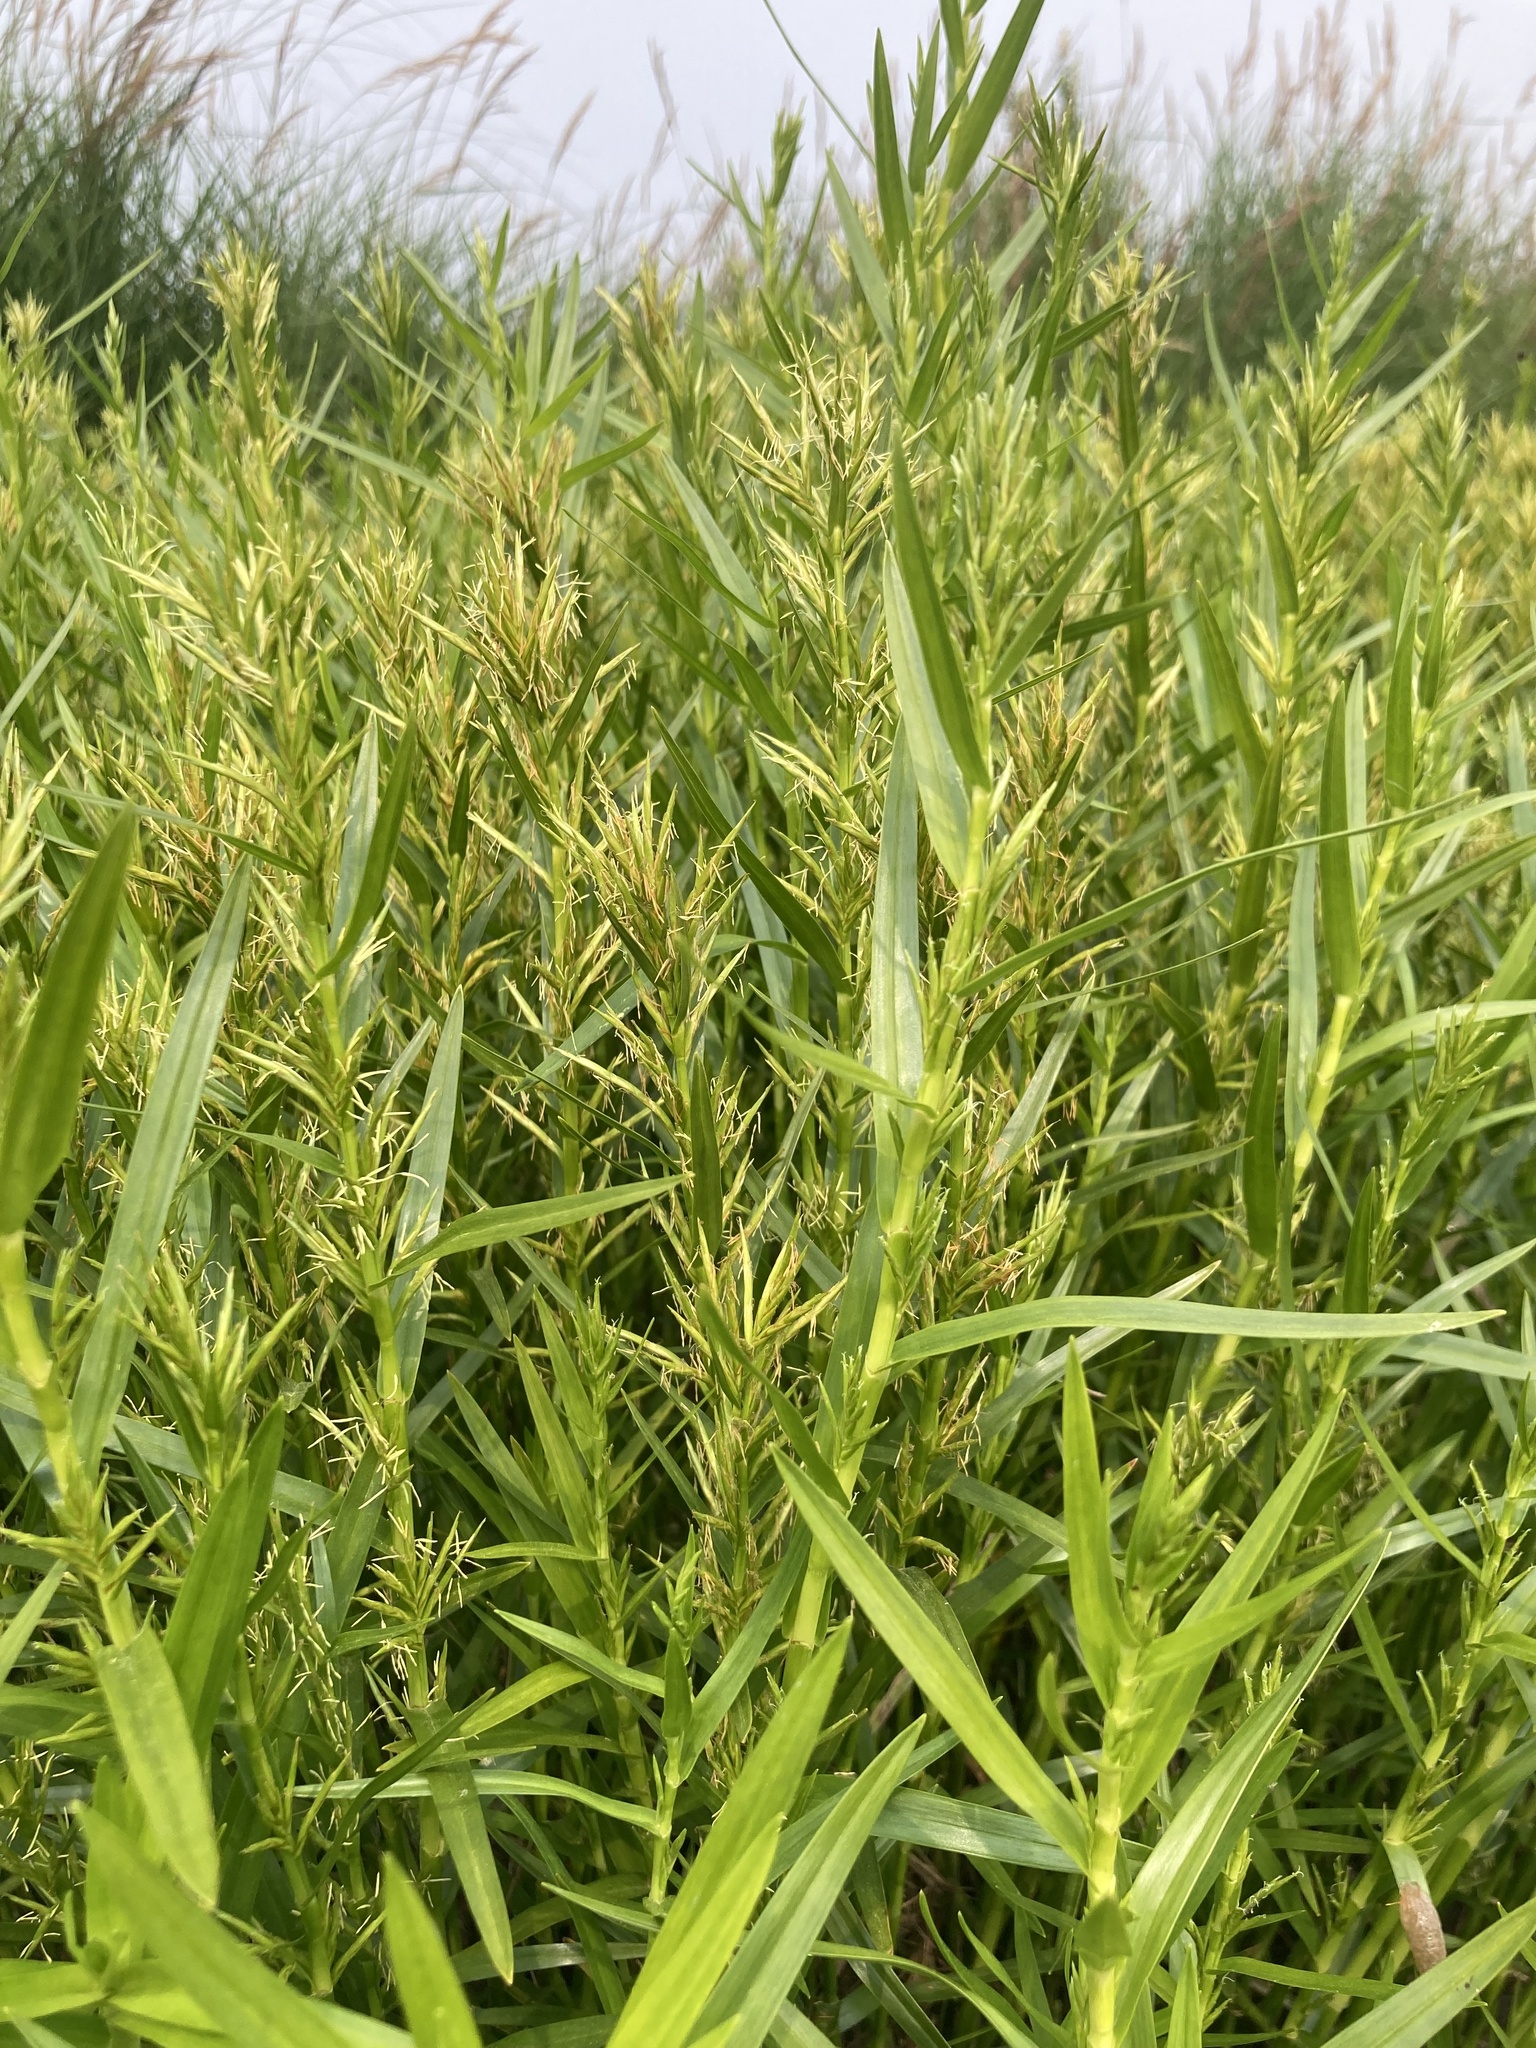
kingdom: Plantae
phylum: Tracheophyta
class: Liliopsida
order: Poales
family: Cyperaceae
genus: Dulichium
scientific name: Dulichium arundinaceum
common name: Three-way sedge
